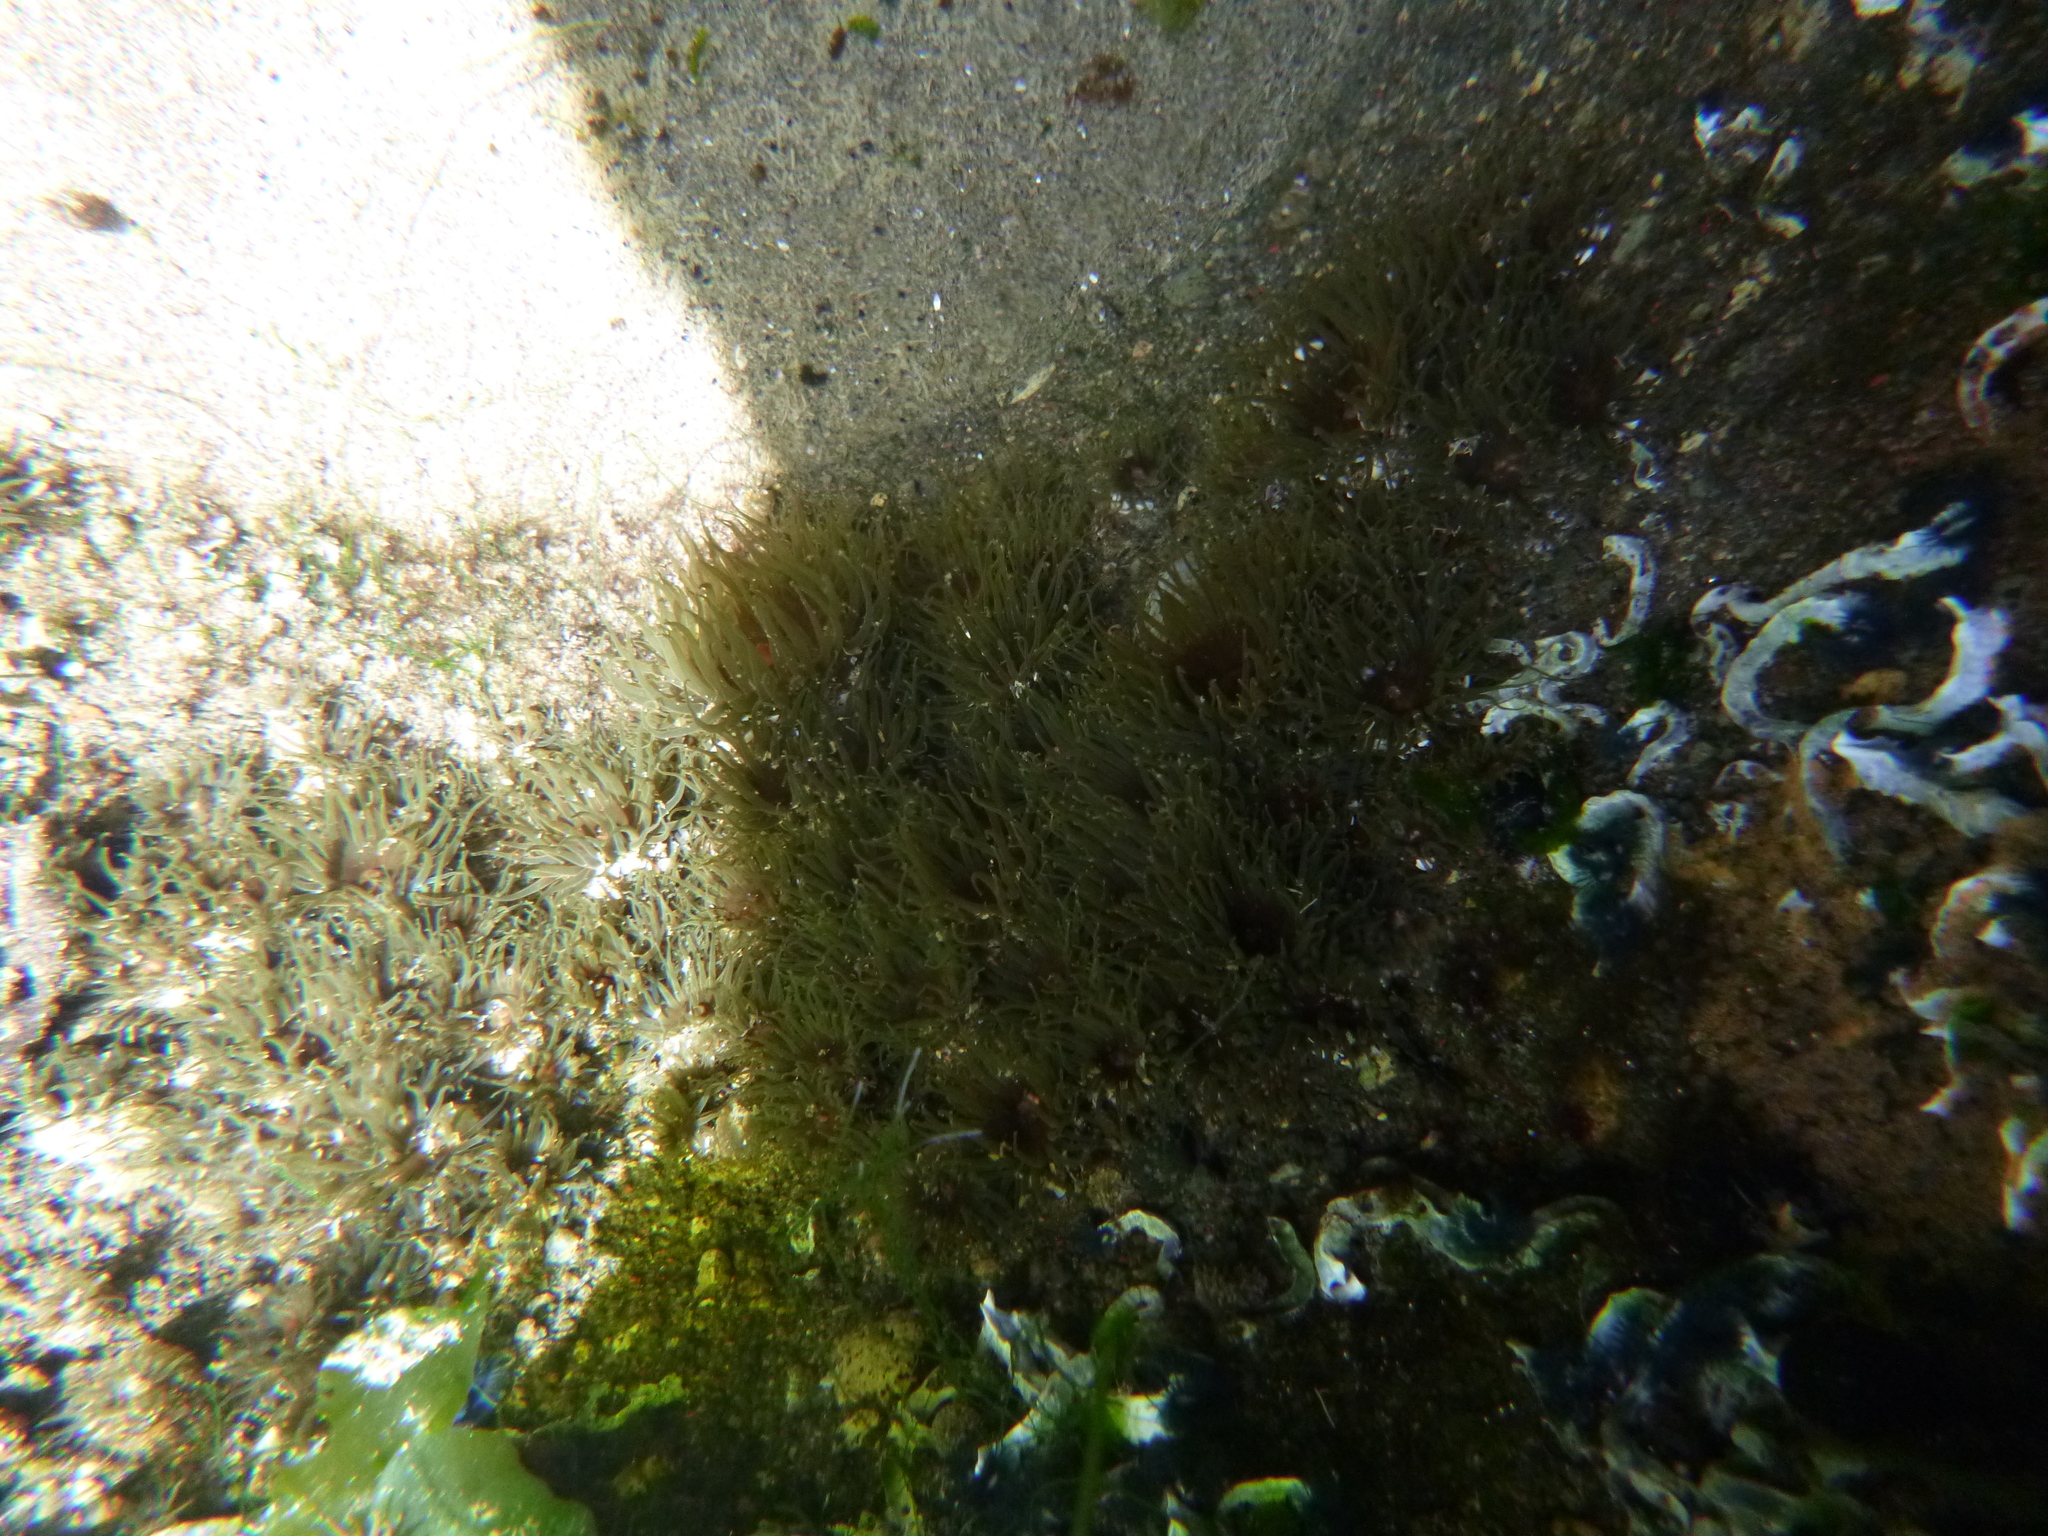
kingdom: Animalia
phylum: Cnidaria
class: Anthozoa
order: Actiniaria
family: Actiniidae
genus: Isactinia
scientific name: Isactinia olivacea
